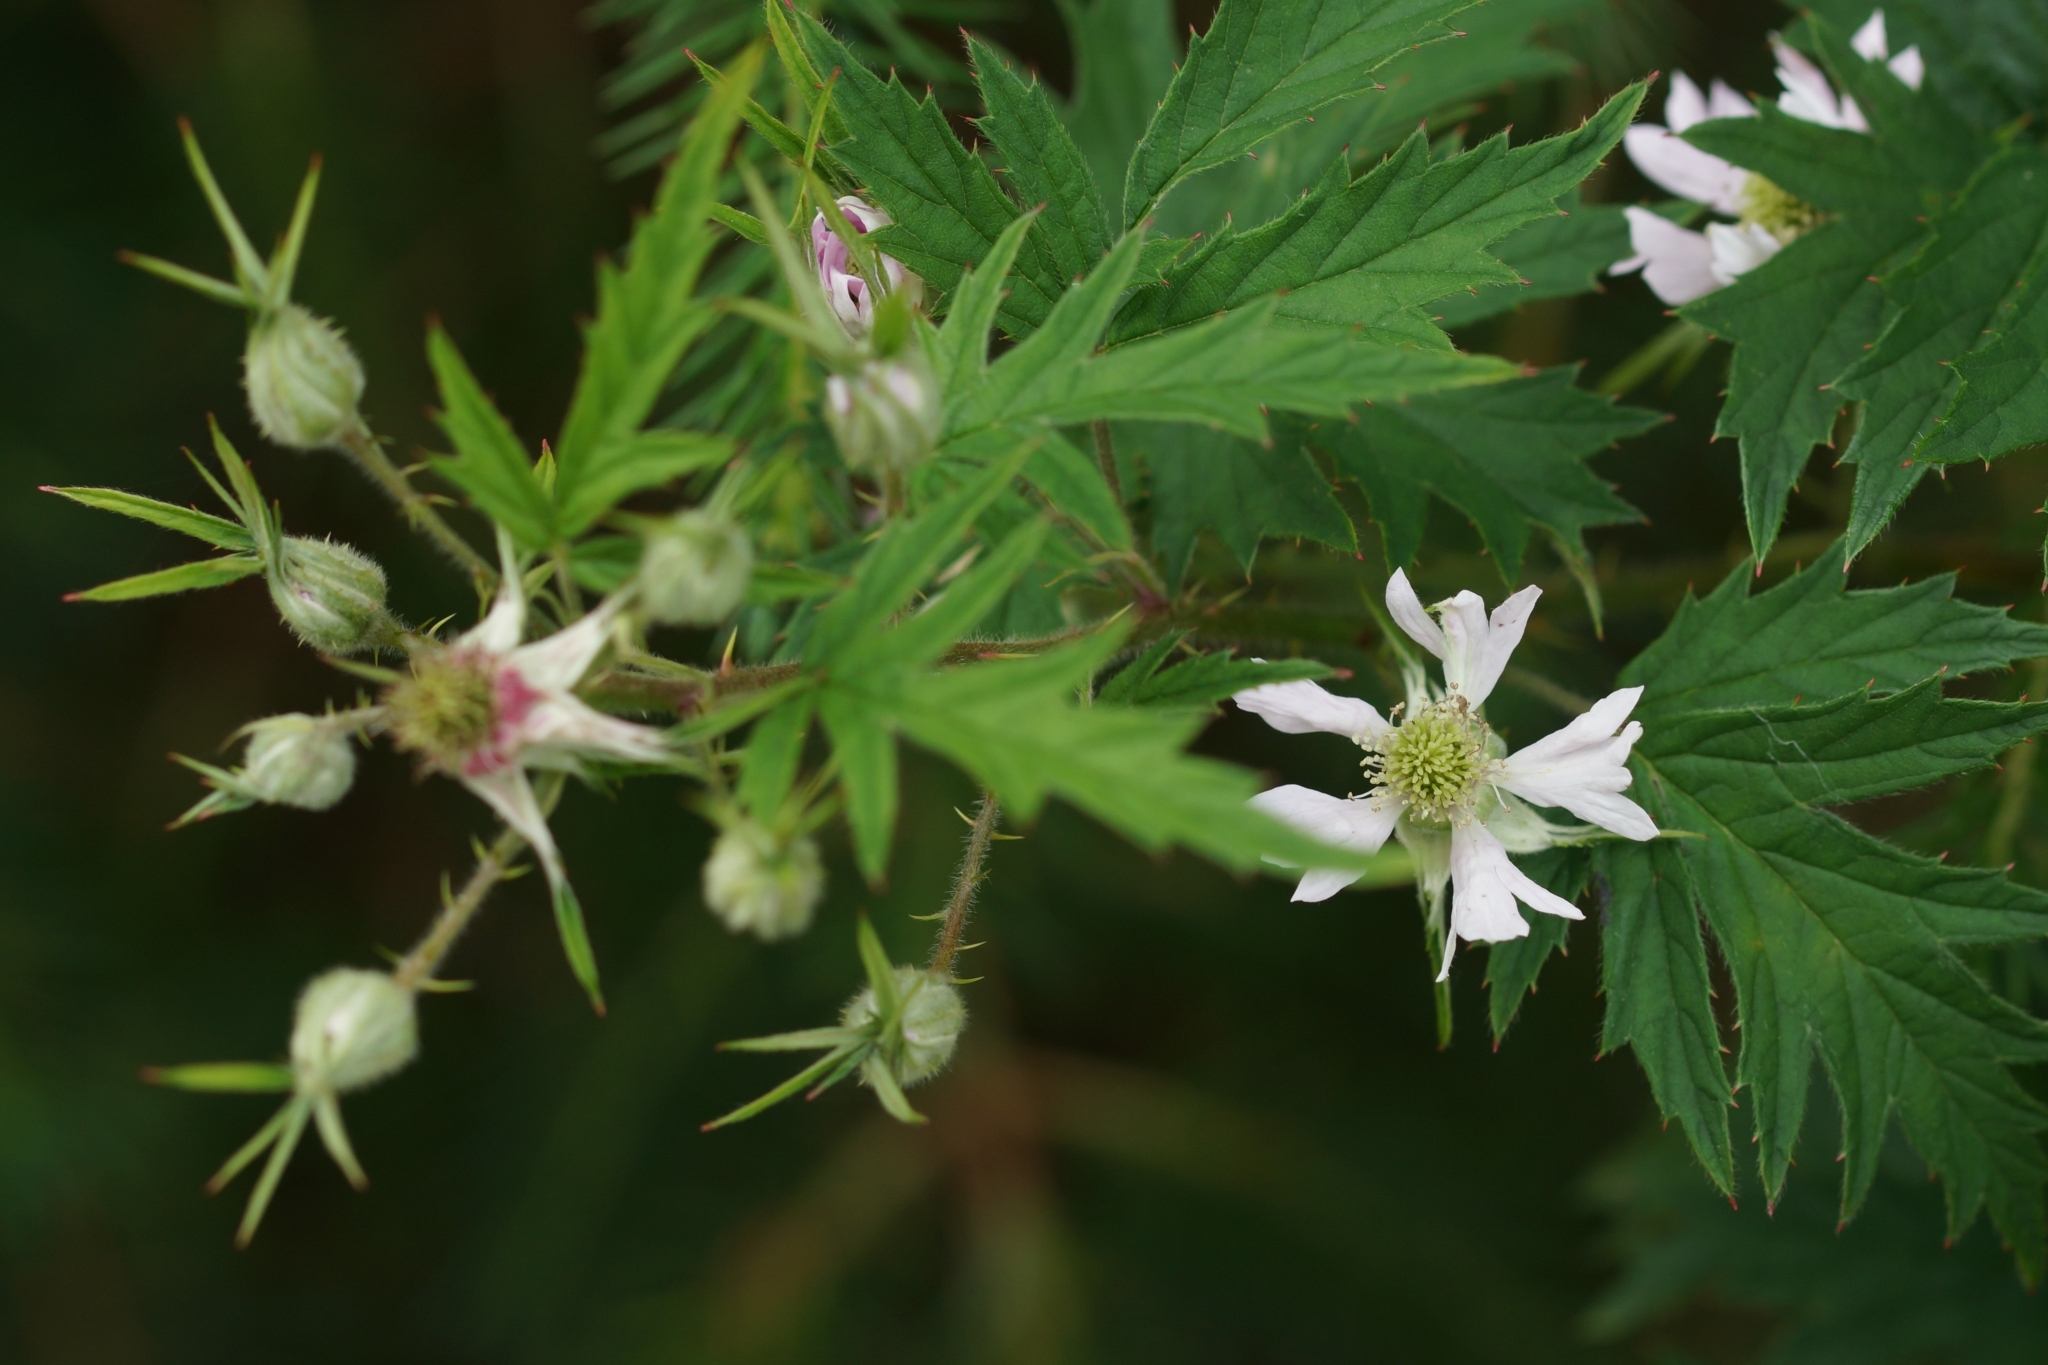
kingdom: Plantae
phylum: Tracheophyta
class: Magnoliopsida
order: Rosales
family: Rosaceae
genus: Rubus
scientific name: Rubus laciniatus
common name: Evergreen blackberry
